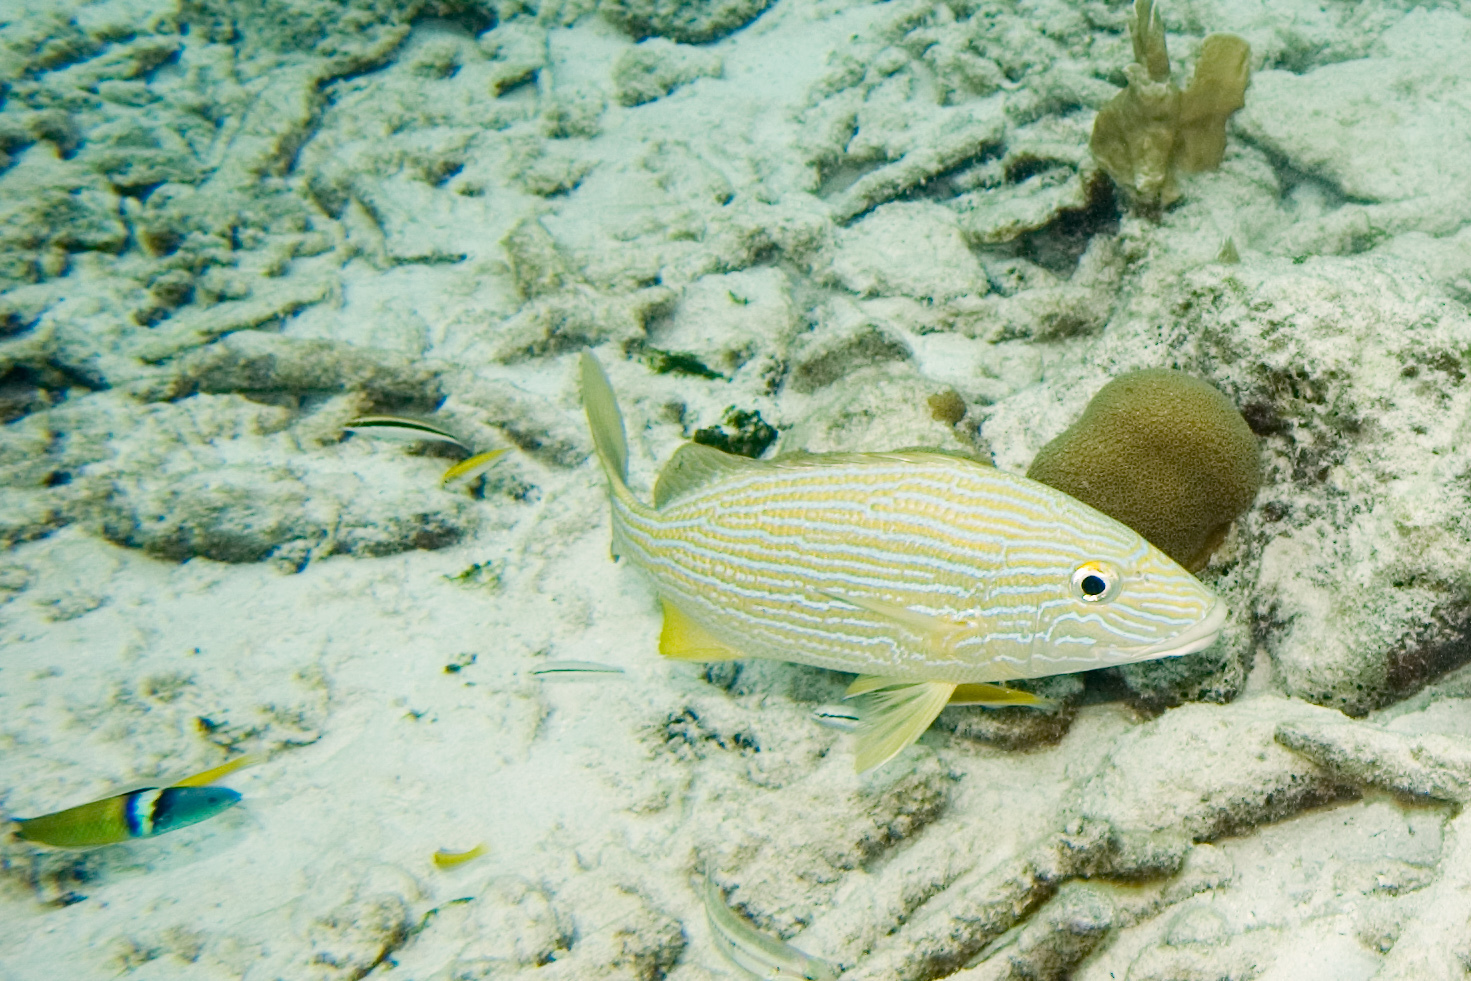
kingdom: Animalia
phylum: Chordata
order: Perciformes
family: Haemulidae
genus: Haemulon
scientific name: Haemulon sciurus
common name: Bluestriped grunt
